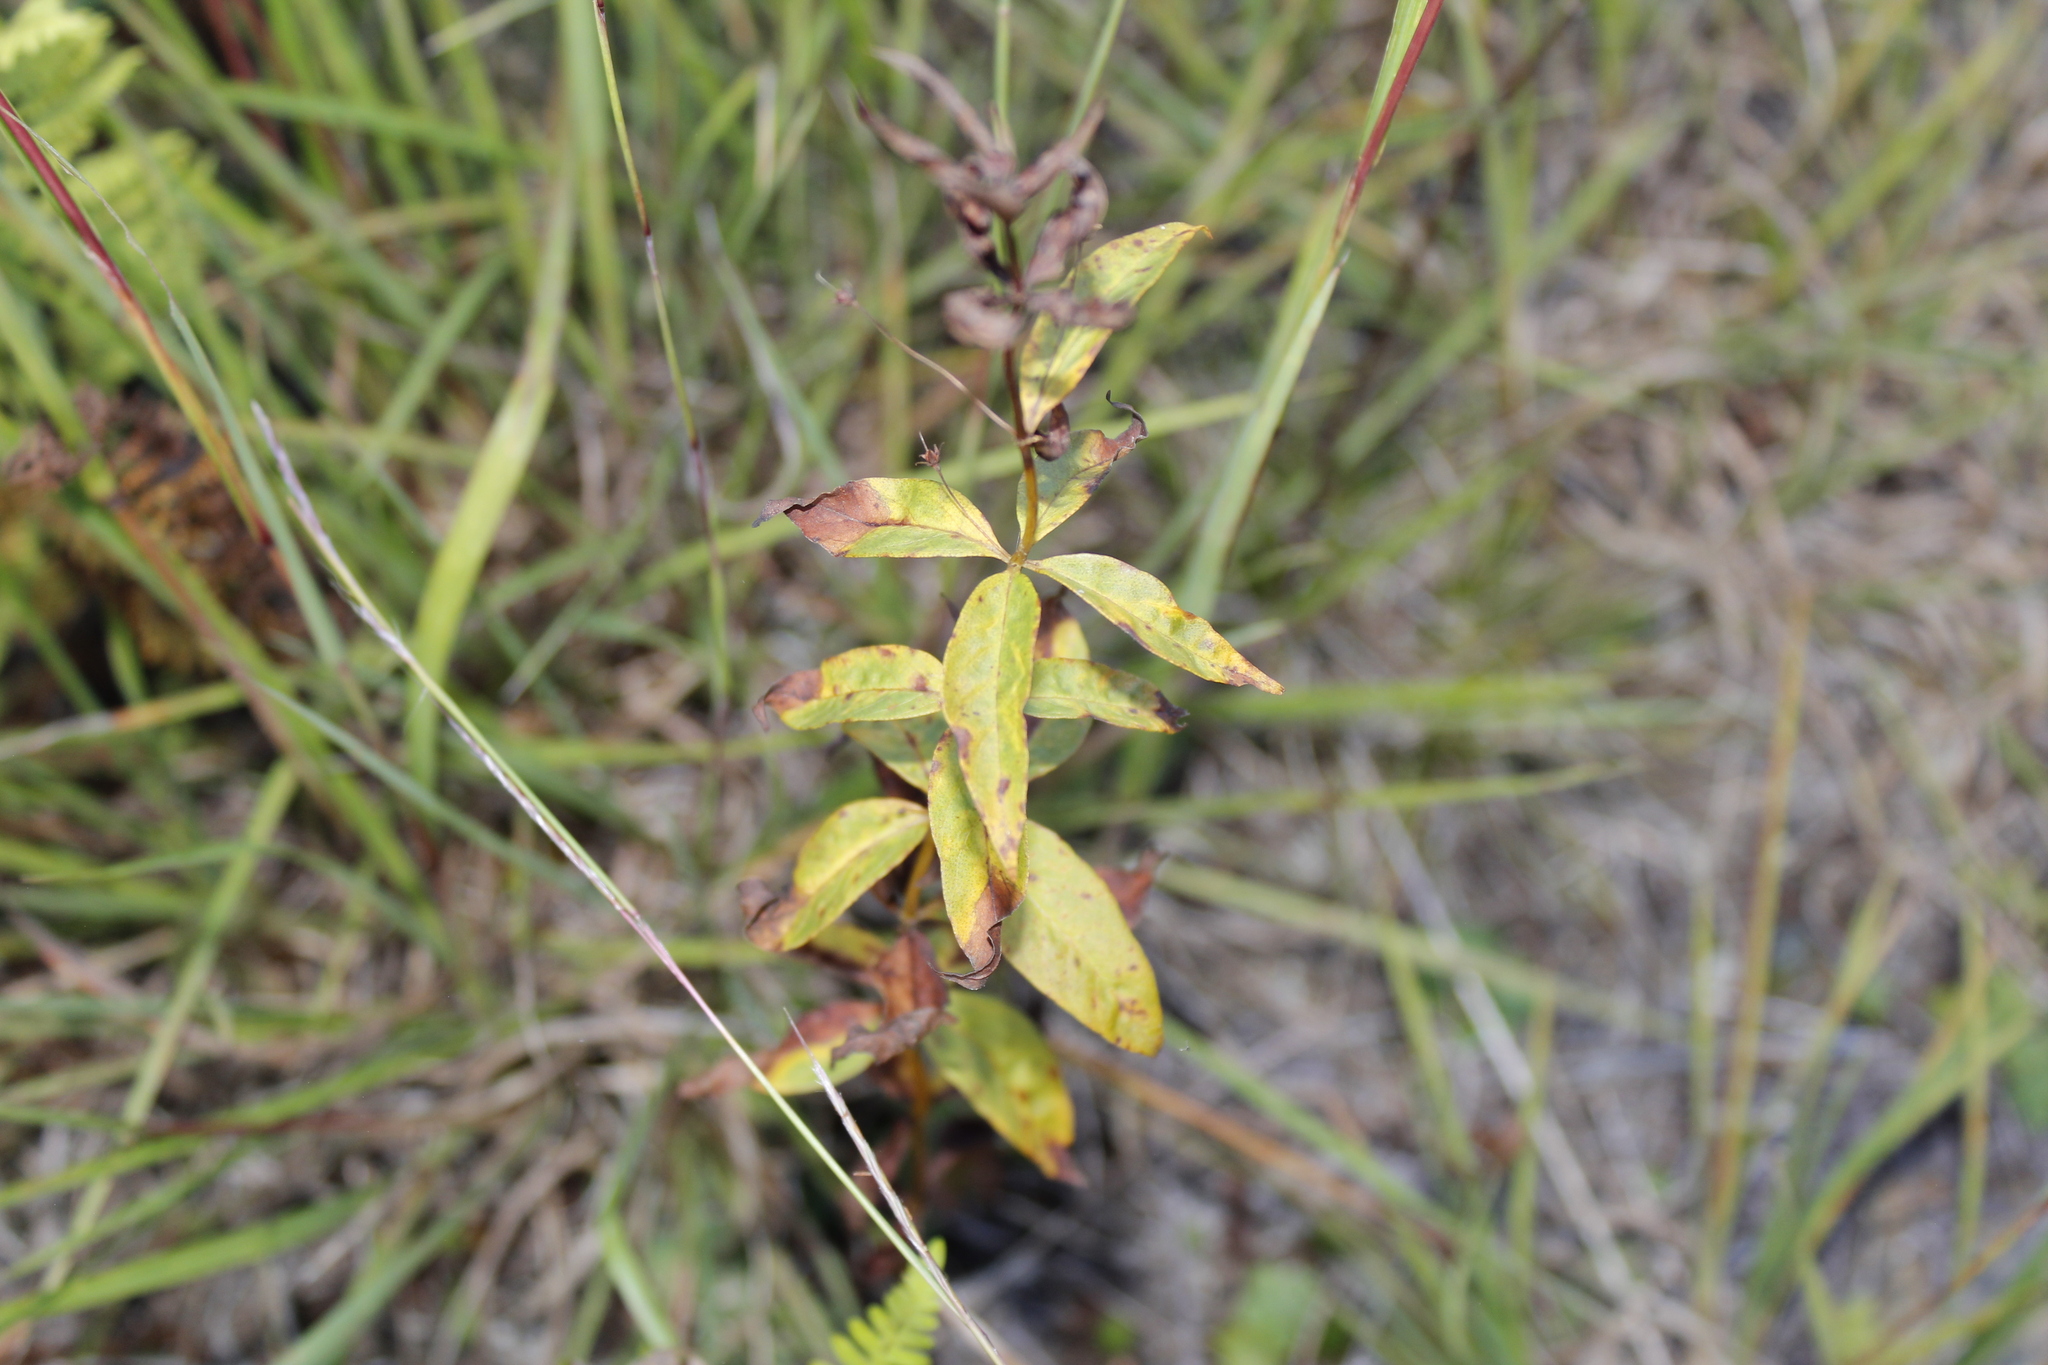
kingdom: Plantae
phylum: Tracheophyta
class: Magnoliopsida
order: Ericales
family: Primulaceae
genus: Lysimachia
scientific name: Lysimachia quadrifolia
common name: Whorled loosestrife
